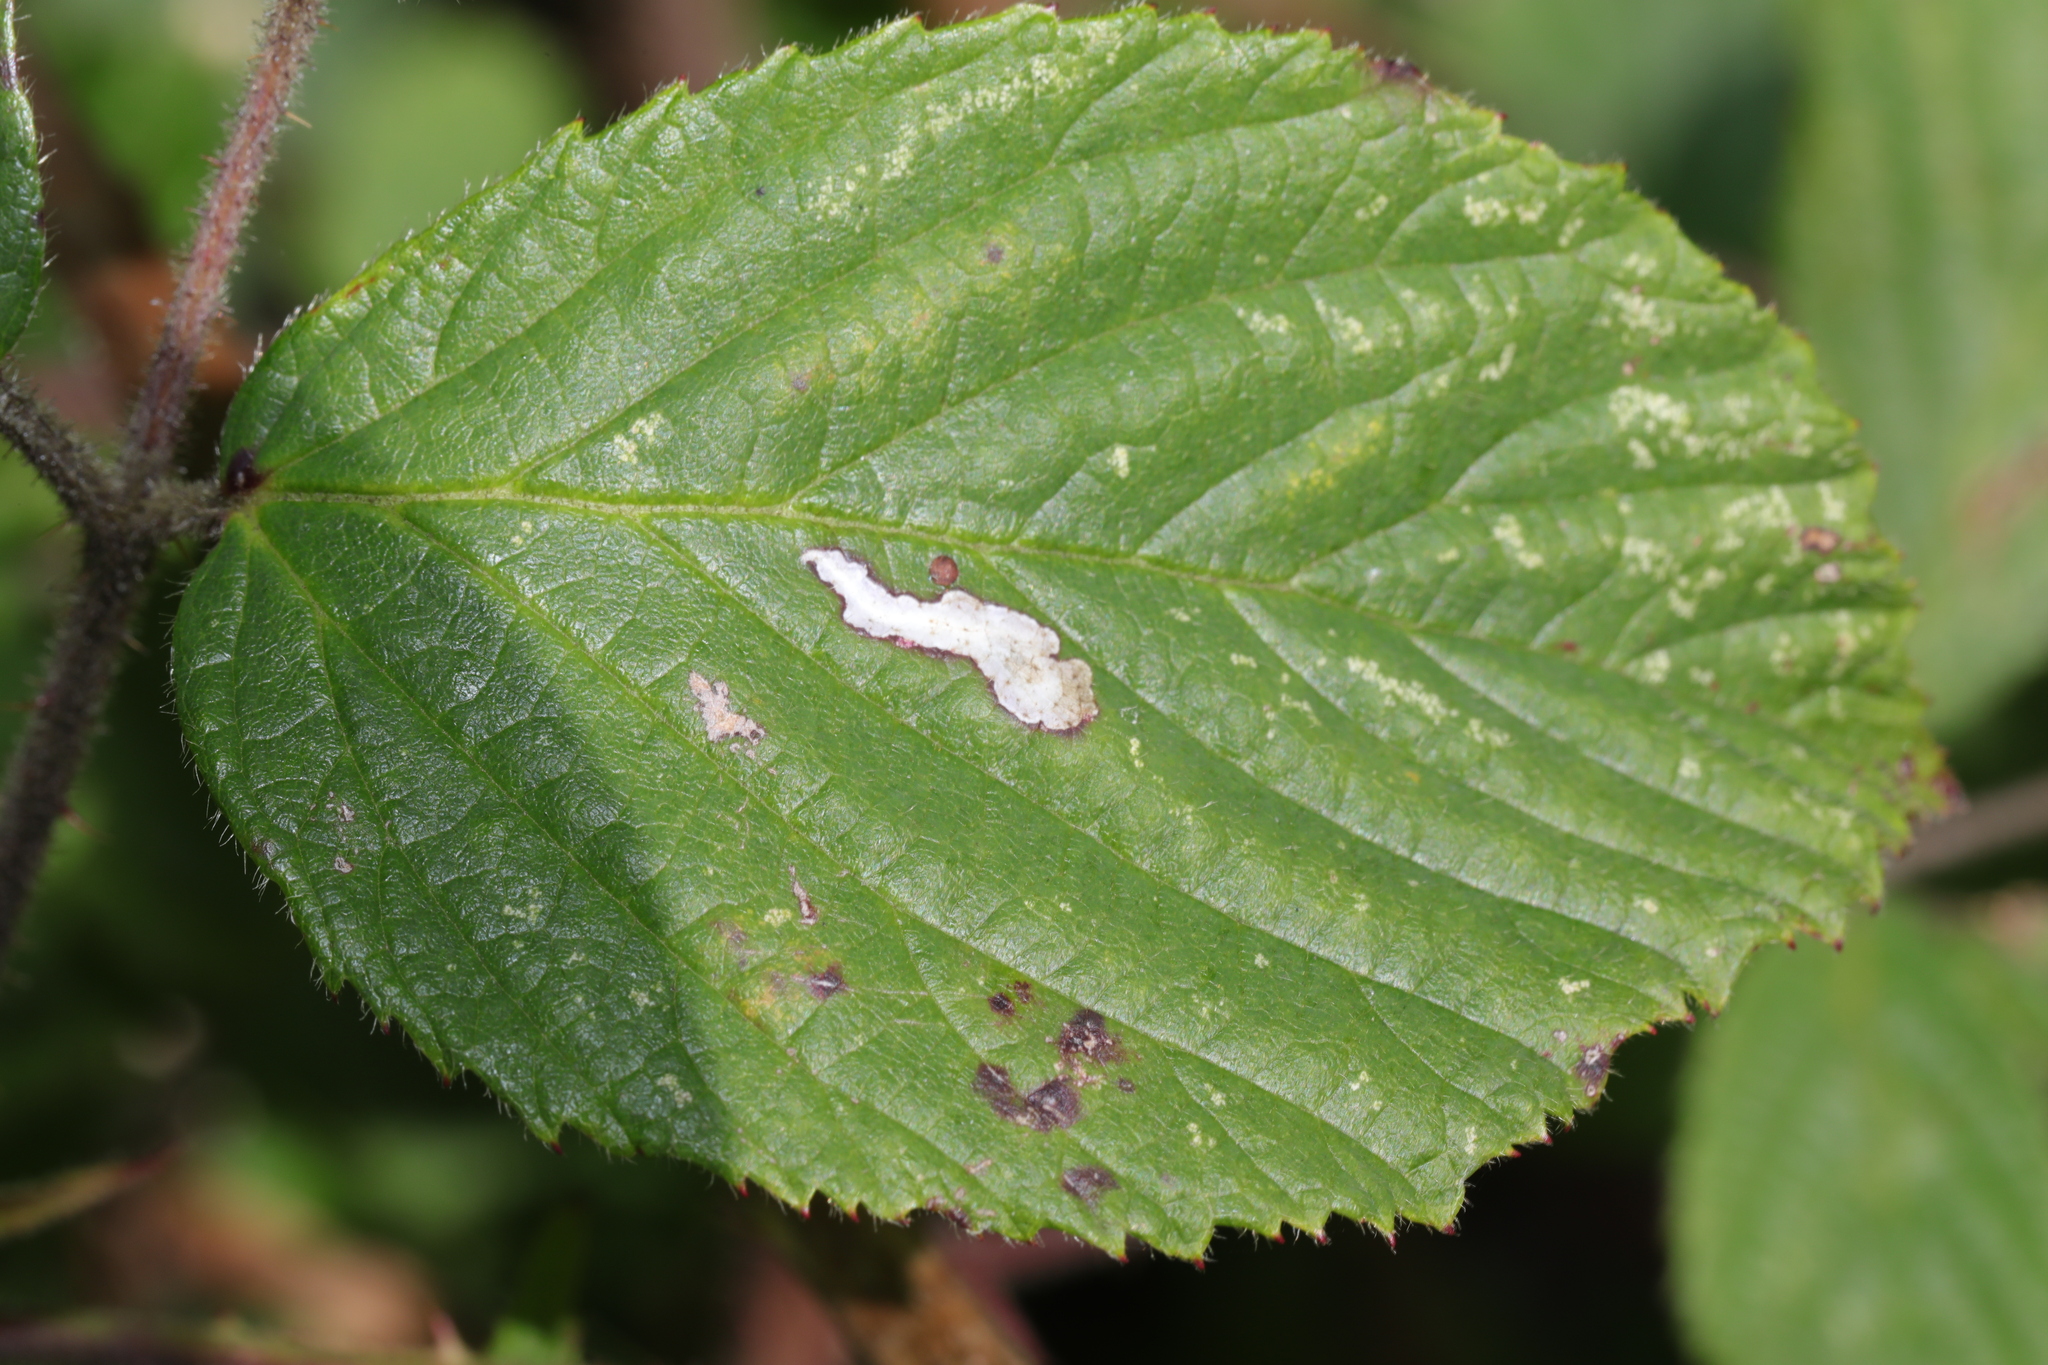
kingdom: Animalia
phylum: Arthropoda
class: Insecta
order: Lepidoptera
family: Tischeriidae
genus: Coptotriche
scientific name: Coptotriche marginea
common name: Bordered carl
